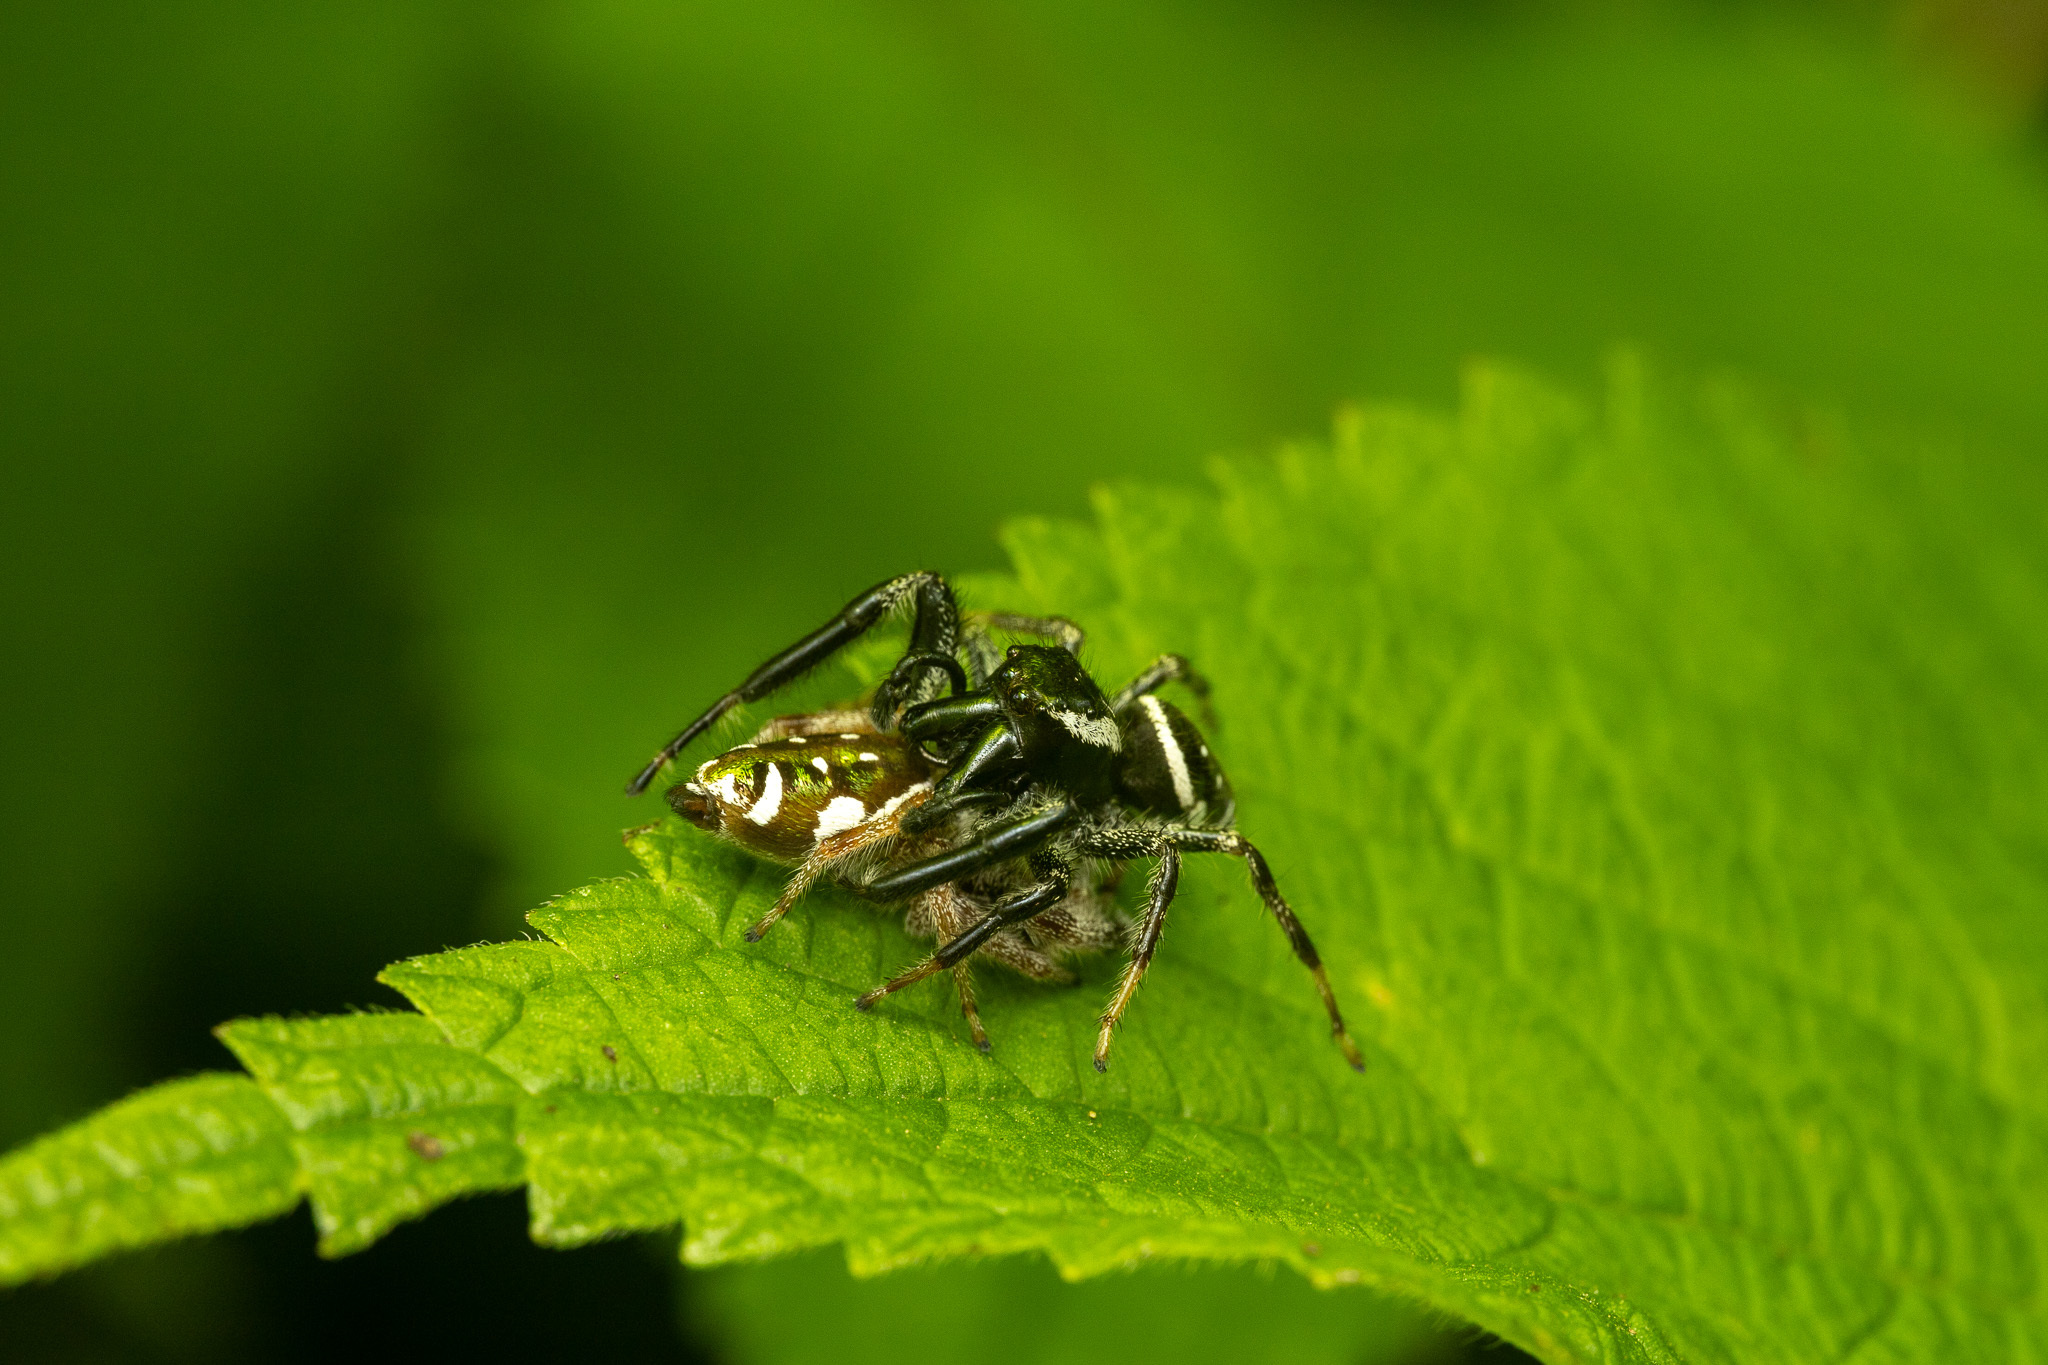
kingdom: Animalia
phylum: Arthropoda
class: Arachnida
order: Araneae
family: Salticidae
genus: Paraphidippus
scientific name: Paraphidippus aurantius
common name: Jumping spiders
